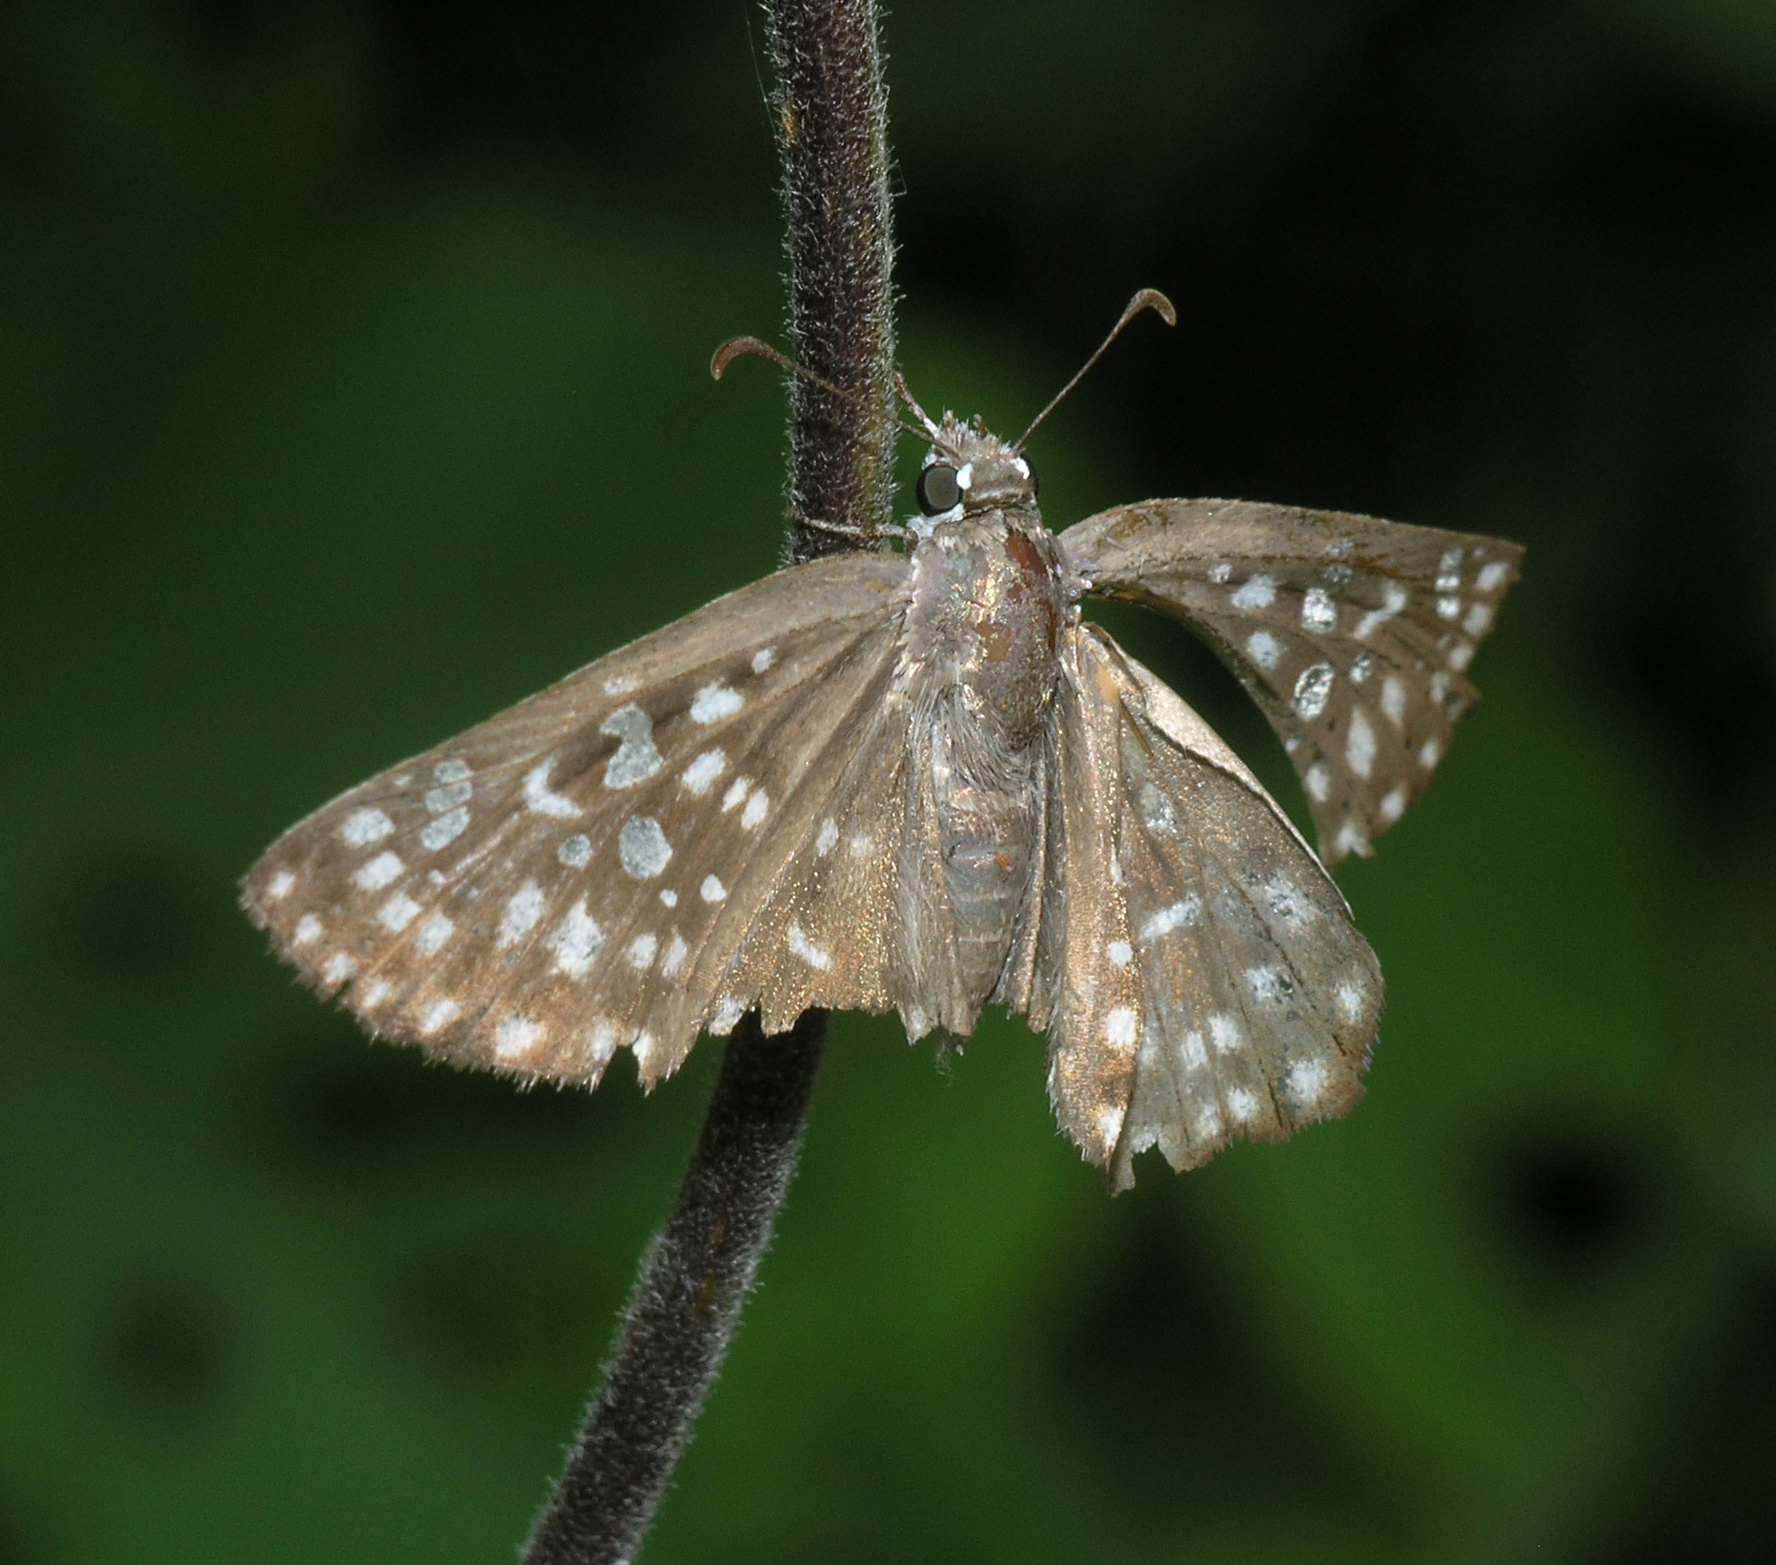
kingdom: Animalia
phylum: Arthropoda
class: Insecta
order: Lepidoptera
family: Hesperiidae
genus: Caprona
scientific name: Caprona alida
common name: Spotted angle
